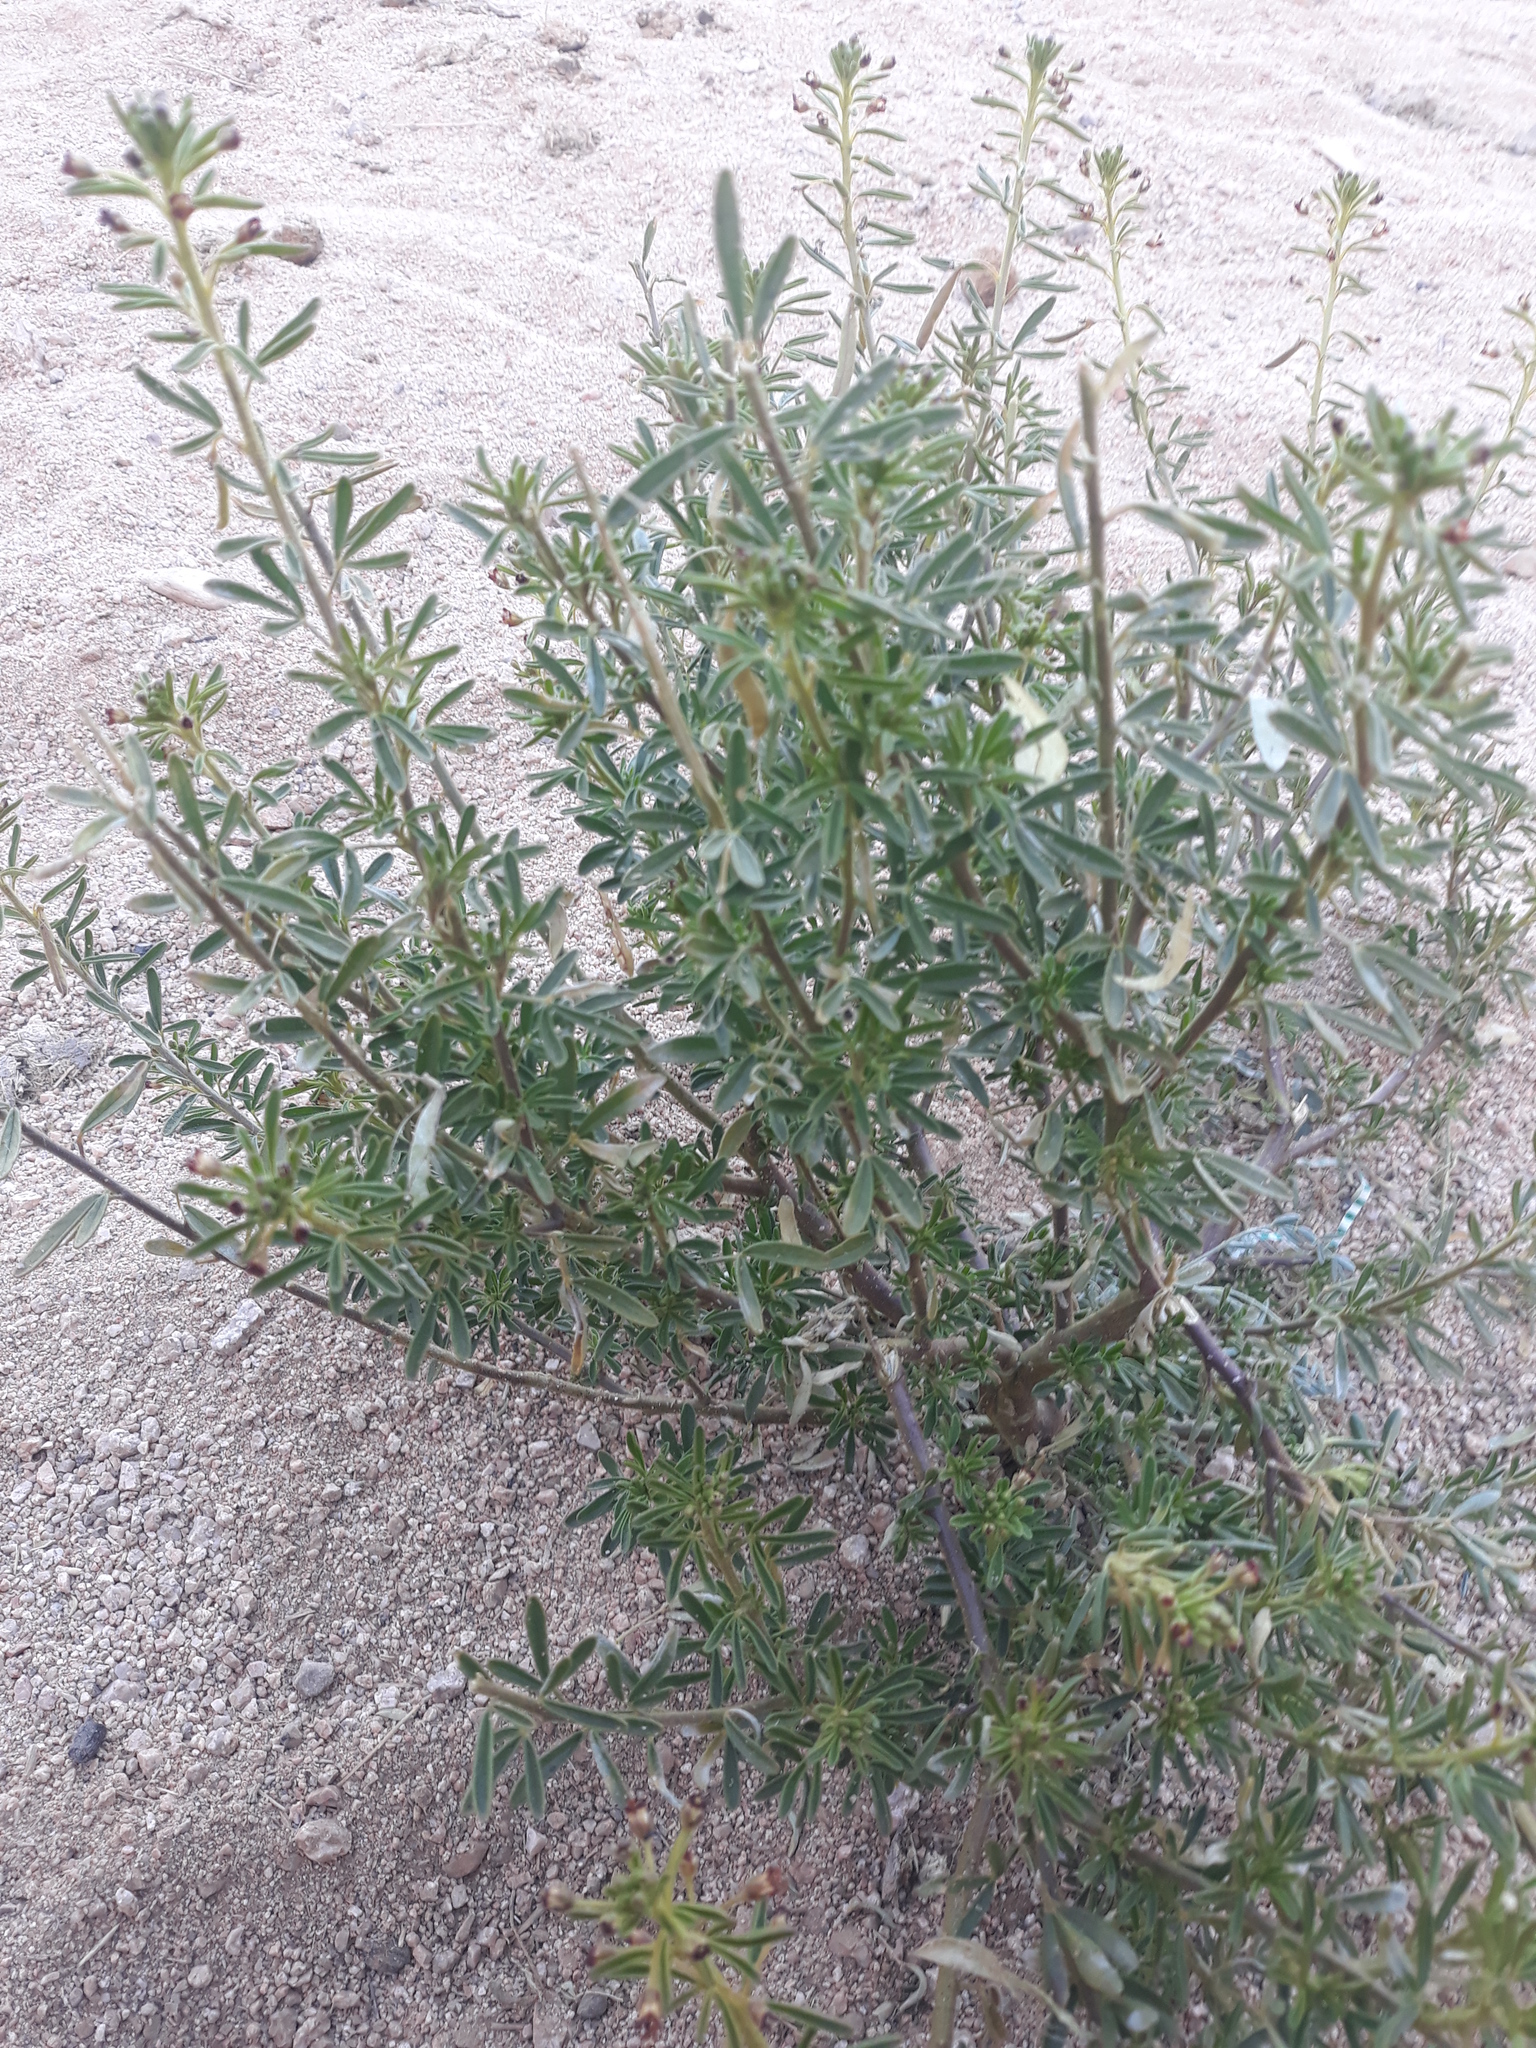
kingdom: Plantae
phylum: Tracheophyta
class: Magnoliopsida
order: Brassicales
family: Cleomaceae
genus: Cleome
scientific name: Cleome amblyocarpa
